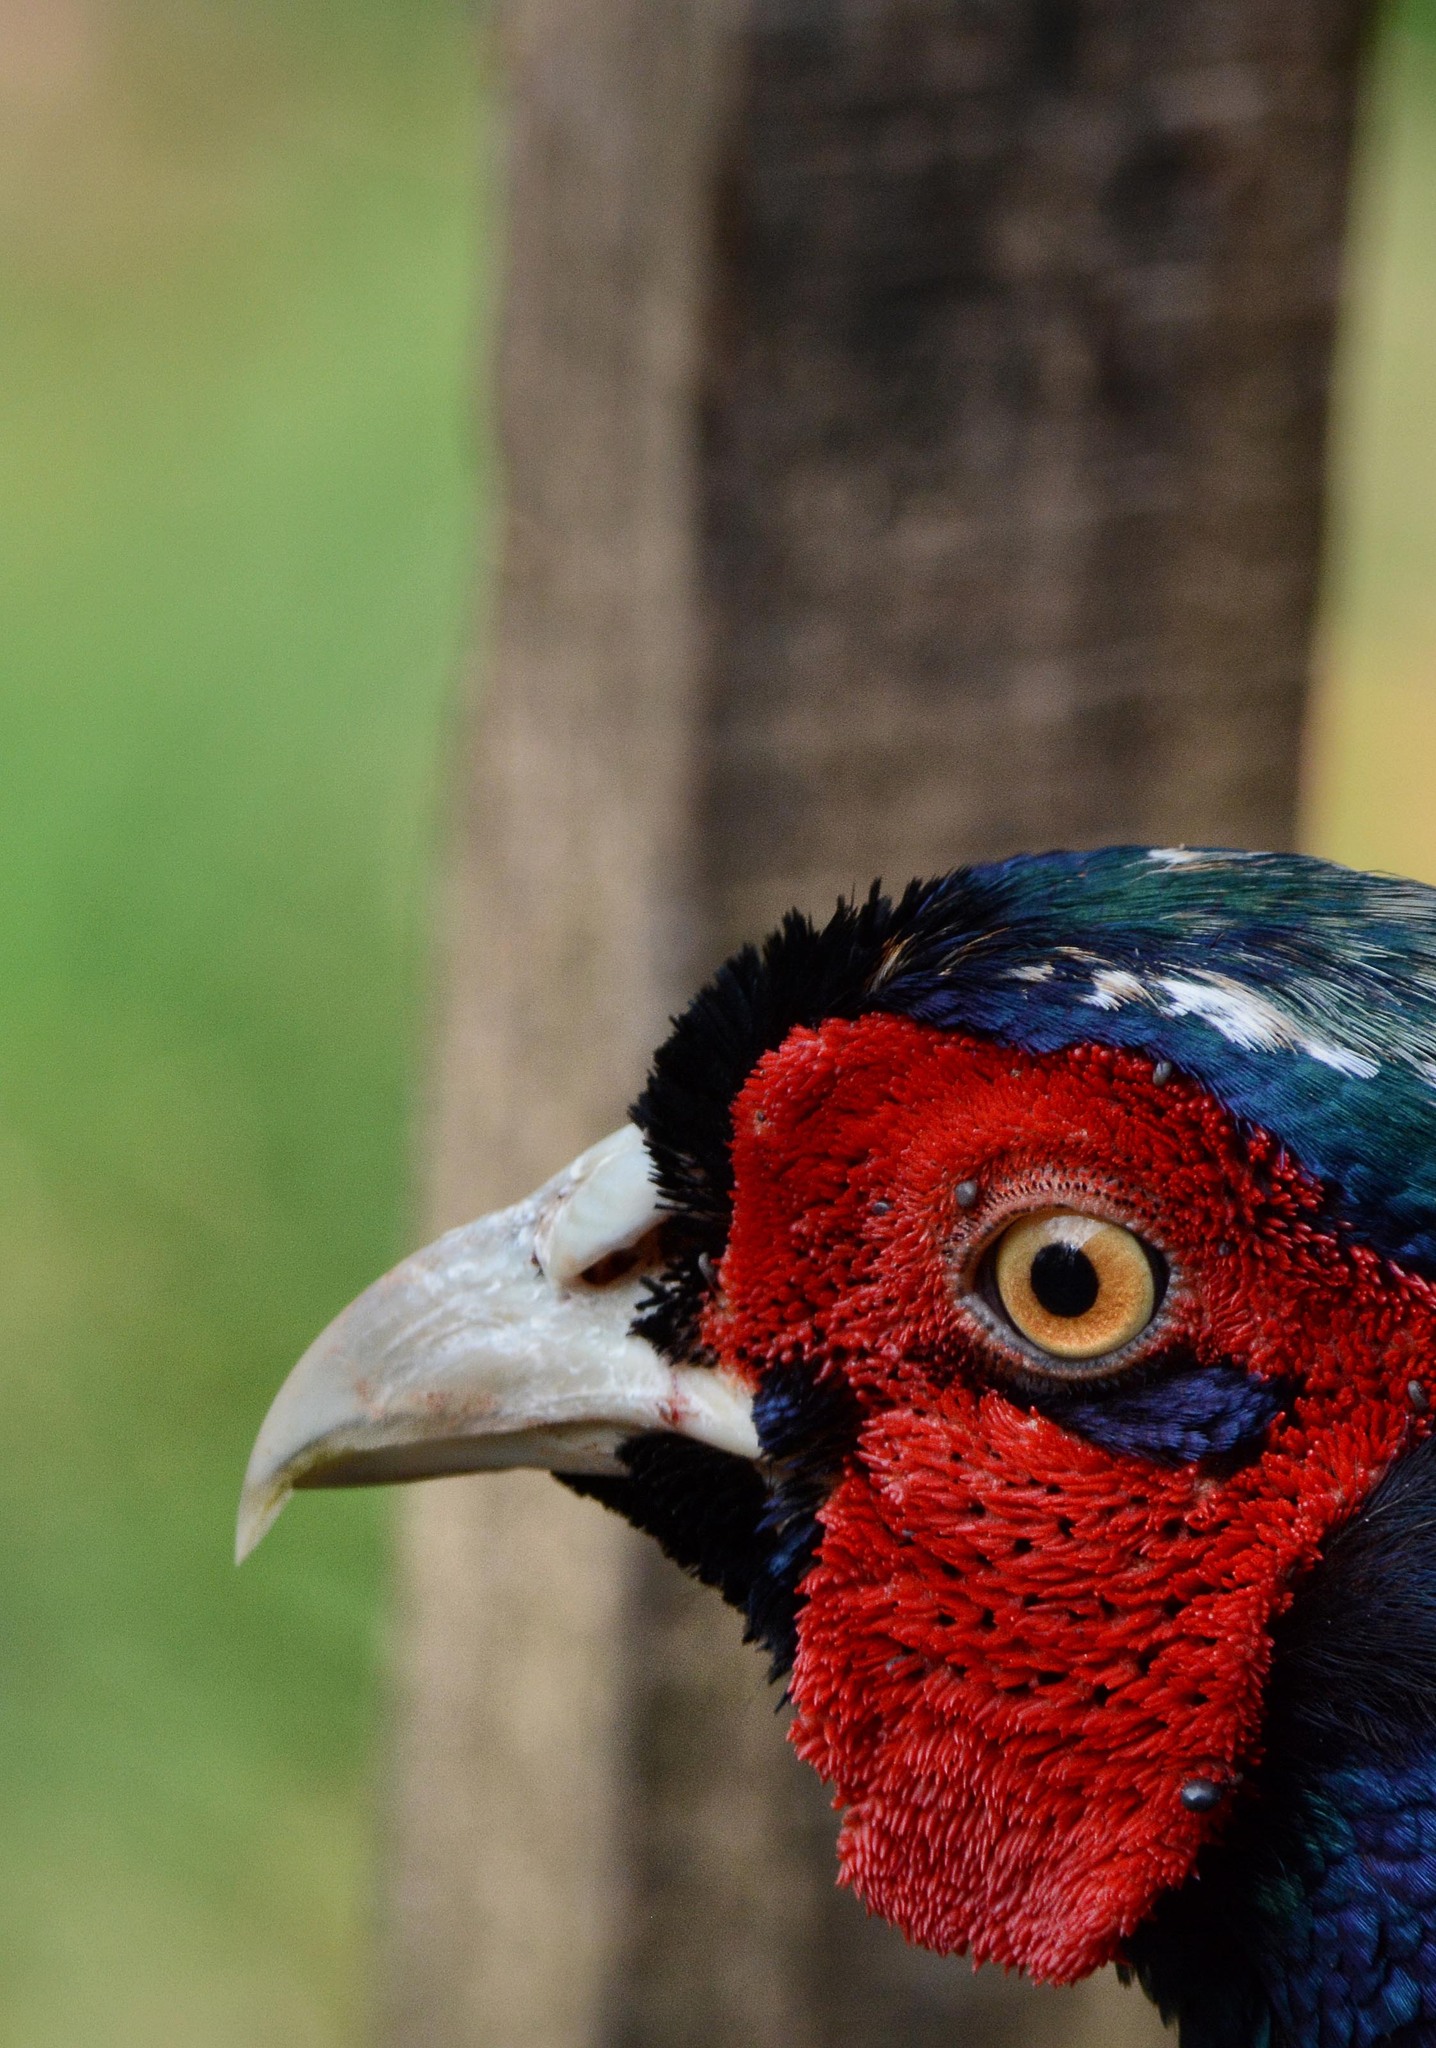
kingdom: Animalia
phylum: Chordata
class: Aves
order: Galliformes
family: Phasianidae
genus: Phasianus
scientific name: Phasianus colchicus
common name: Common pheasant
